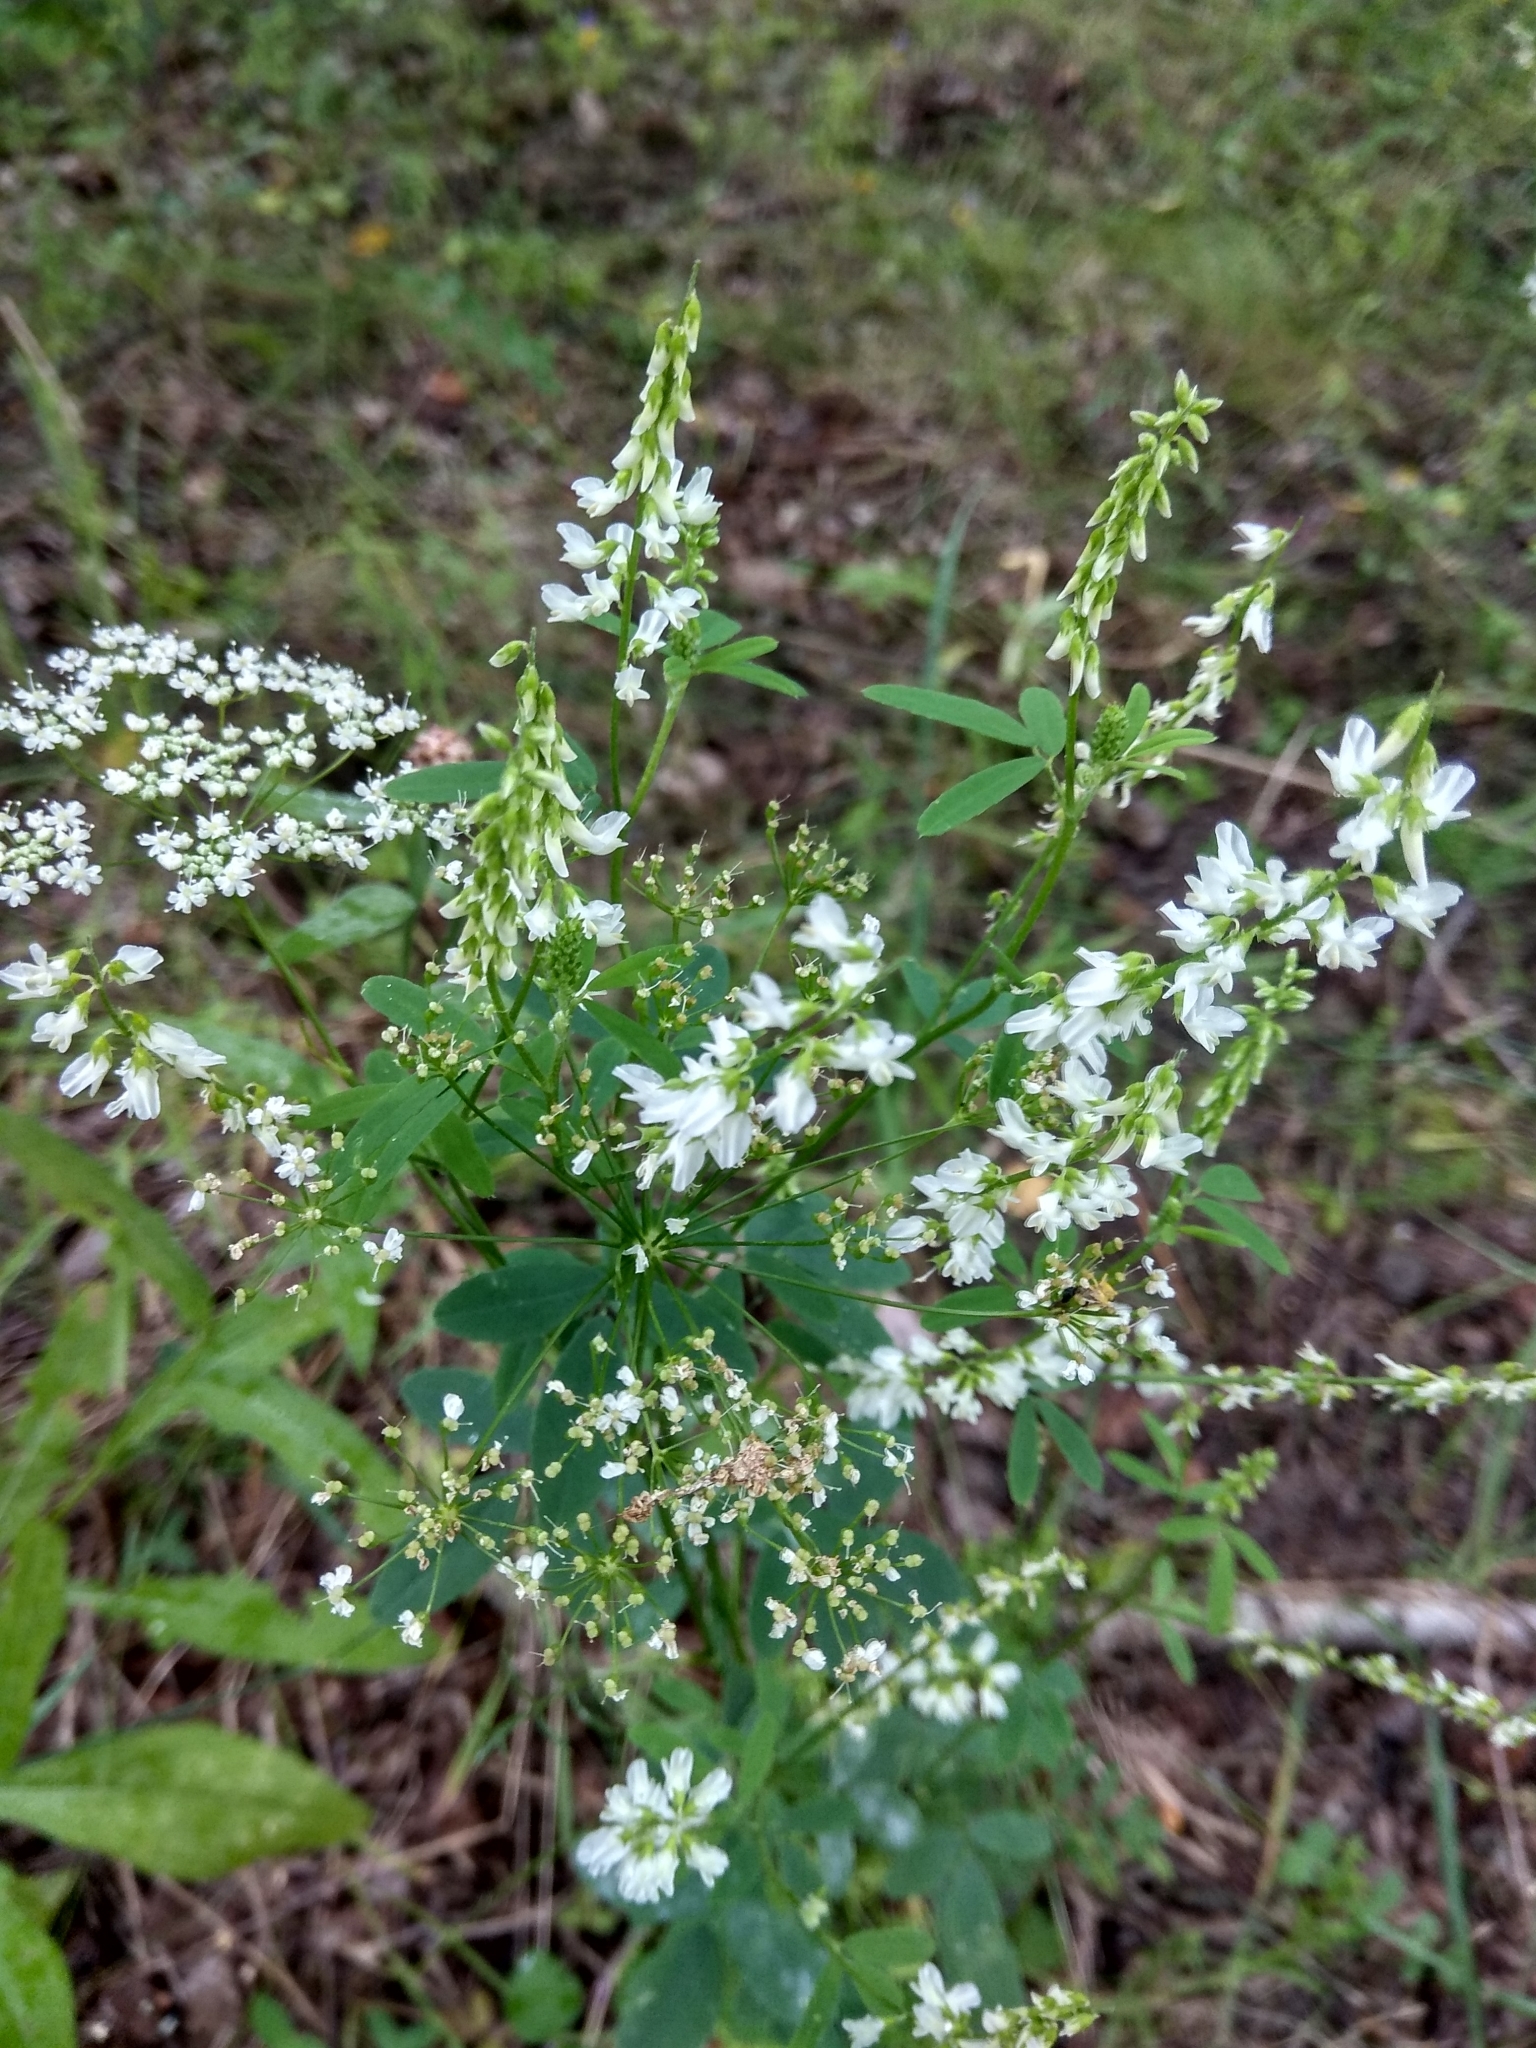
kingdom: Plantae
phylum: Tracheophyta
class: Magnoliopsida
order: Fabales
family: Fabaceae
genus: Melilotus
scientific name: Melilotus albus
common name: White melilot
